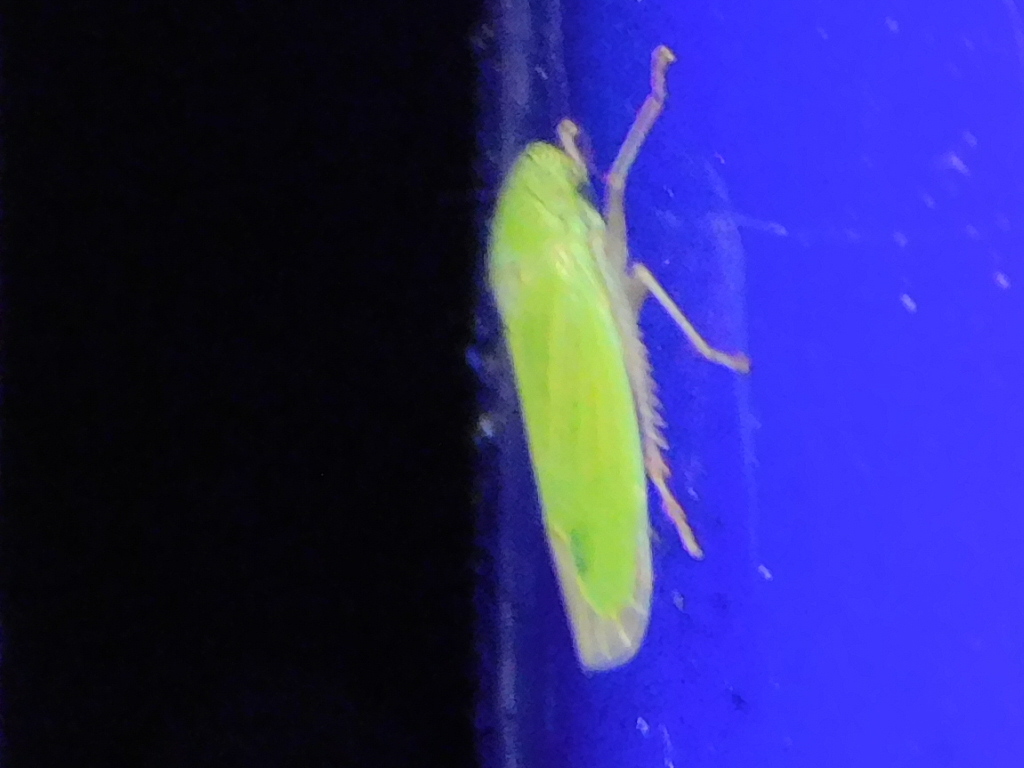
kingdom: Animalia
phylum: Arthropoda
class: Insecta
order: Hemiptera
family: Cicadellidae
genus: Hortensia
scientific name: Hortensia similis
